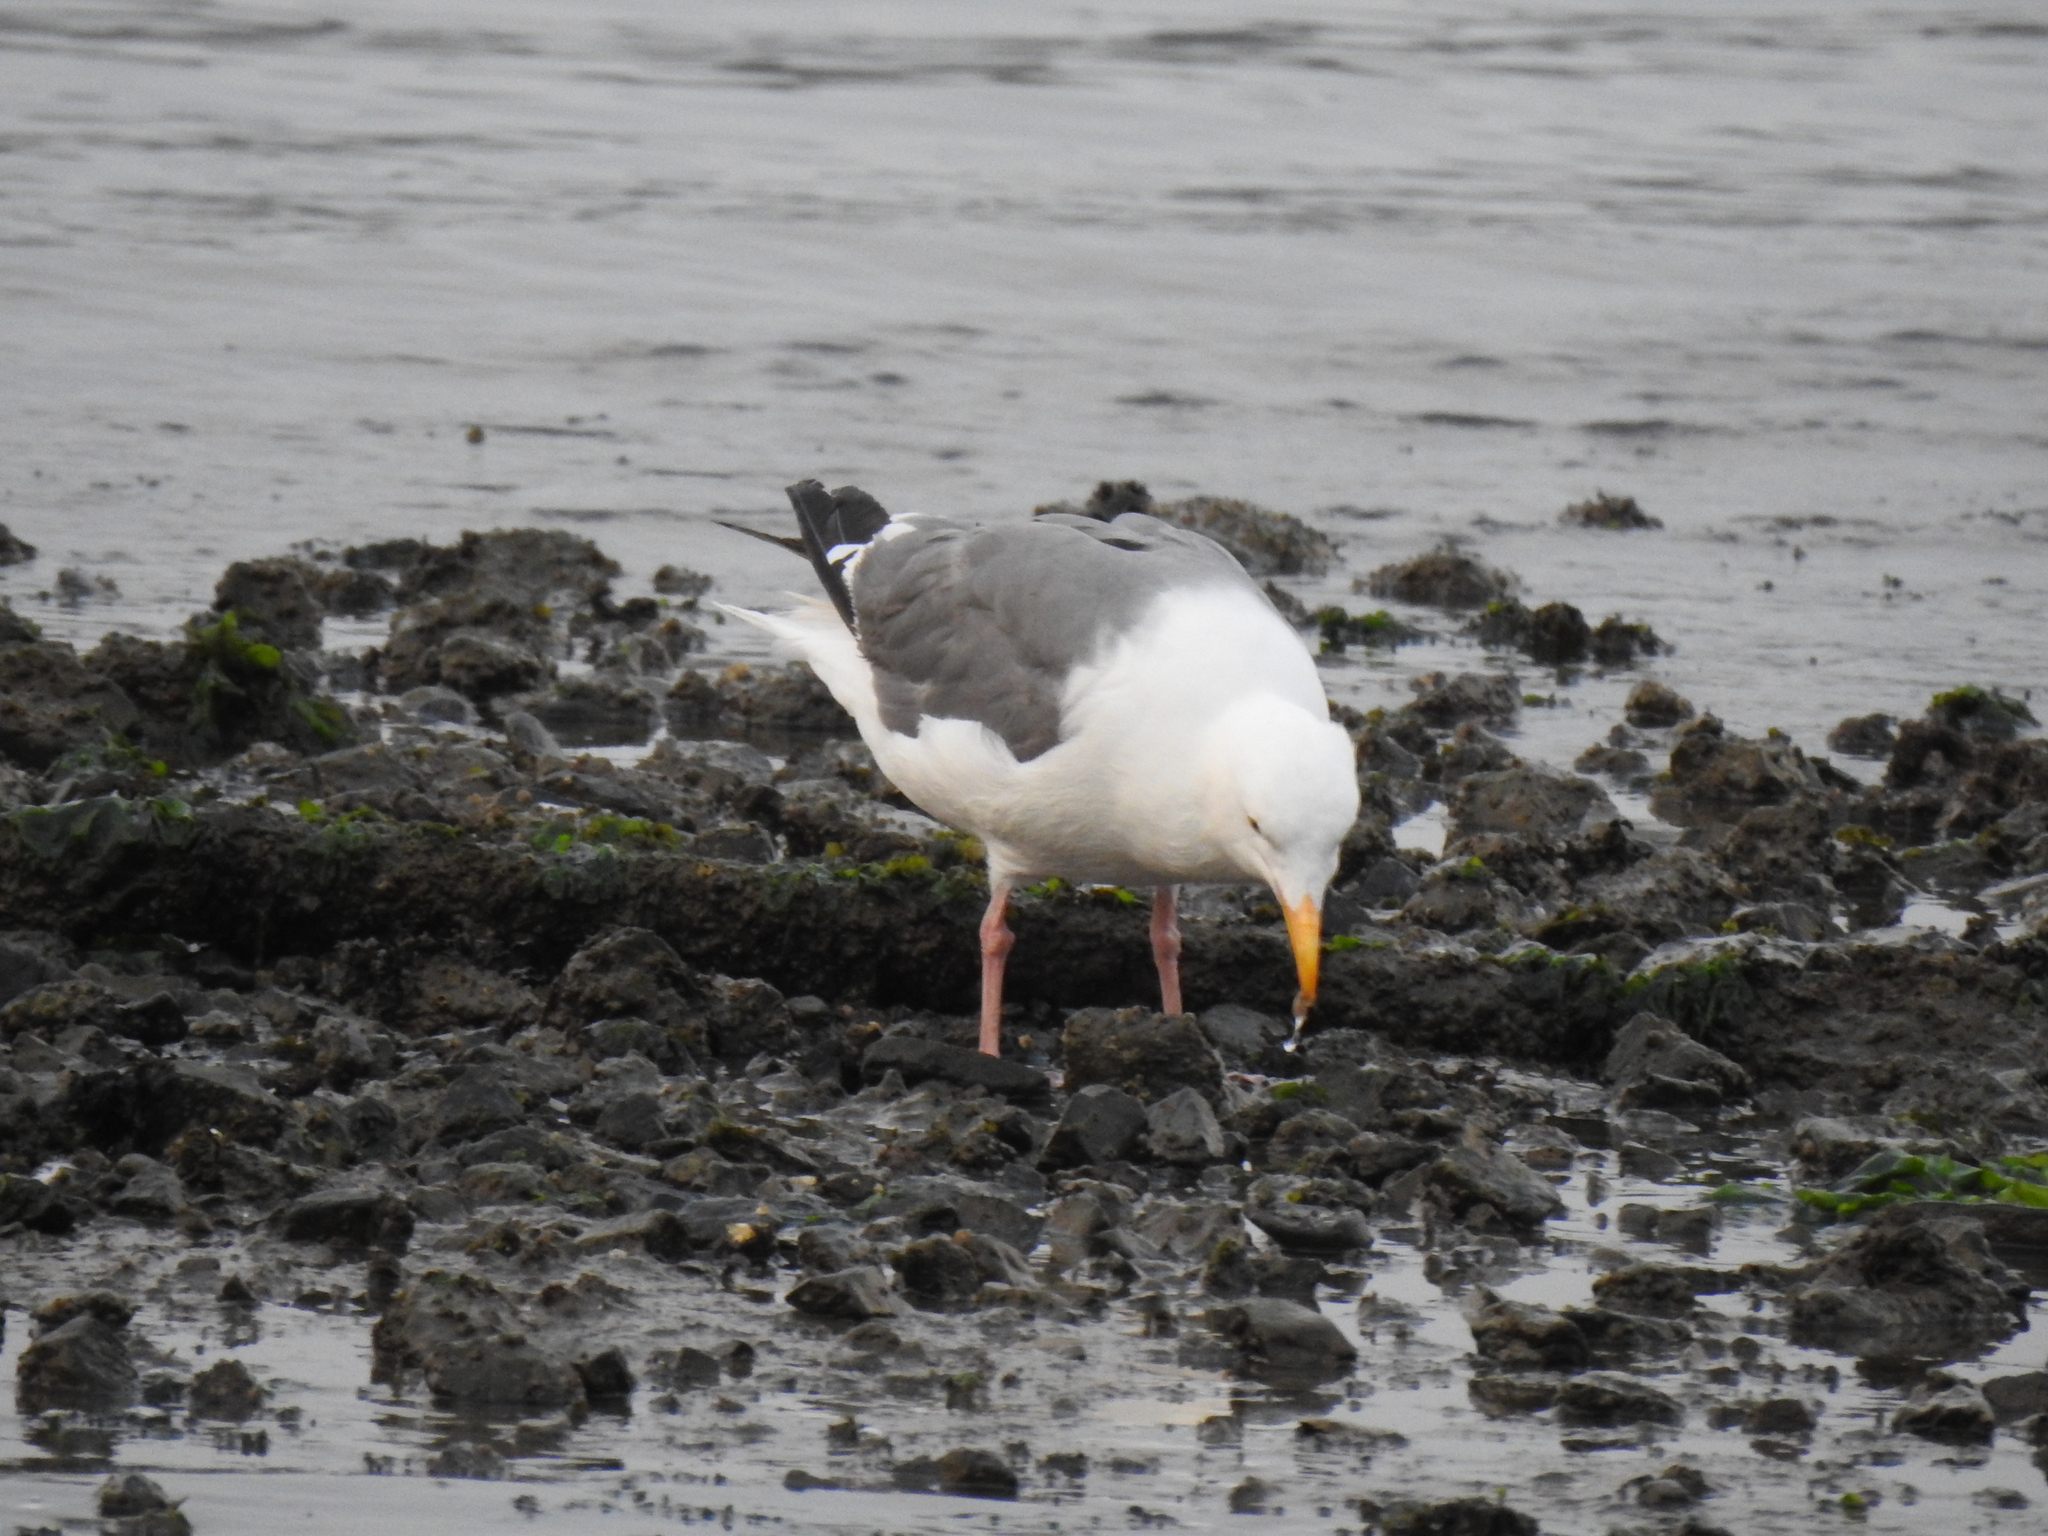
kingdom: Animalia
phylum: Chordata
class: Aves
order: Charadriiformes
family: Laridae
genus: Larus
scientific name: Larus occidentalis
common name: Western gull
